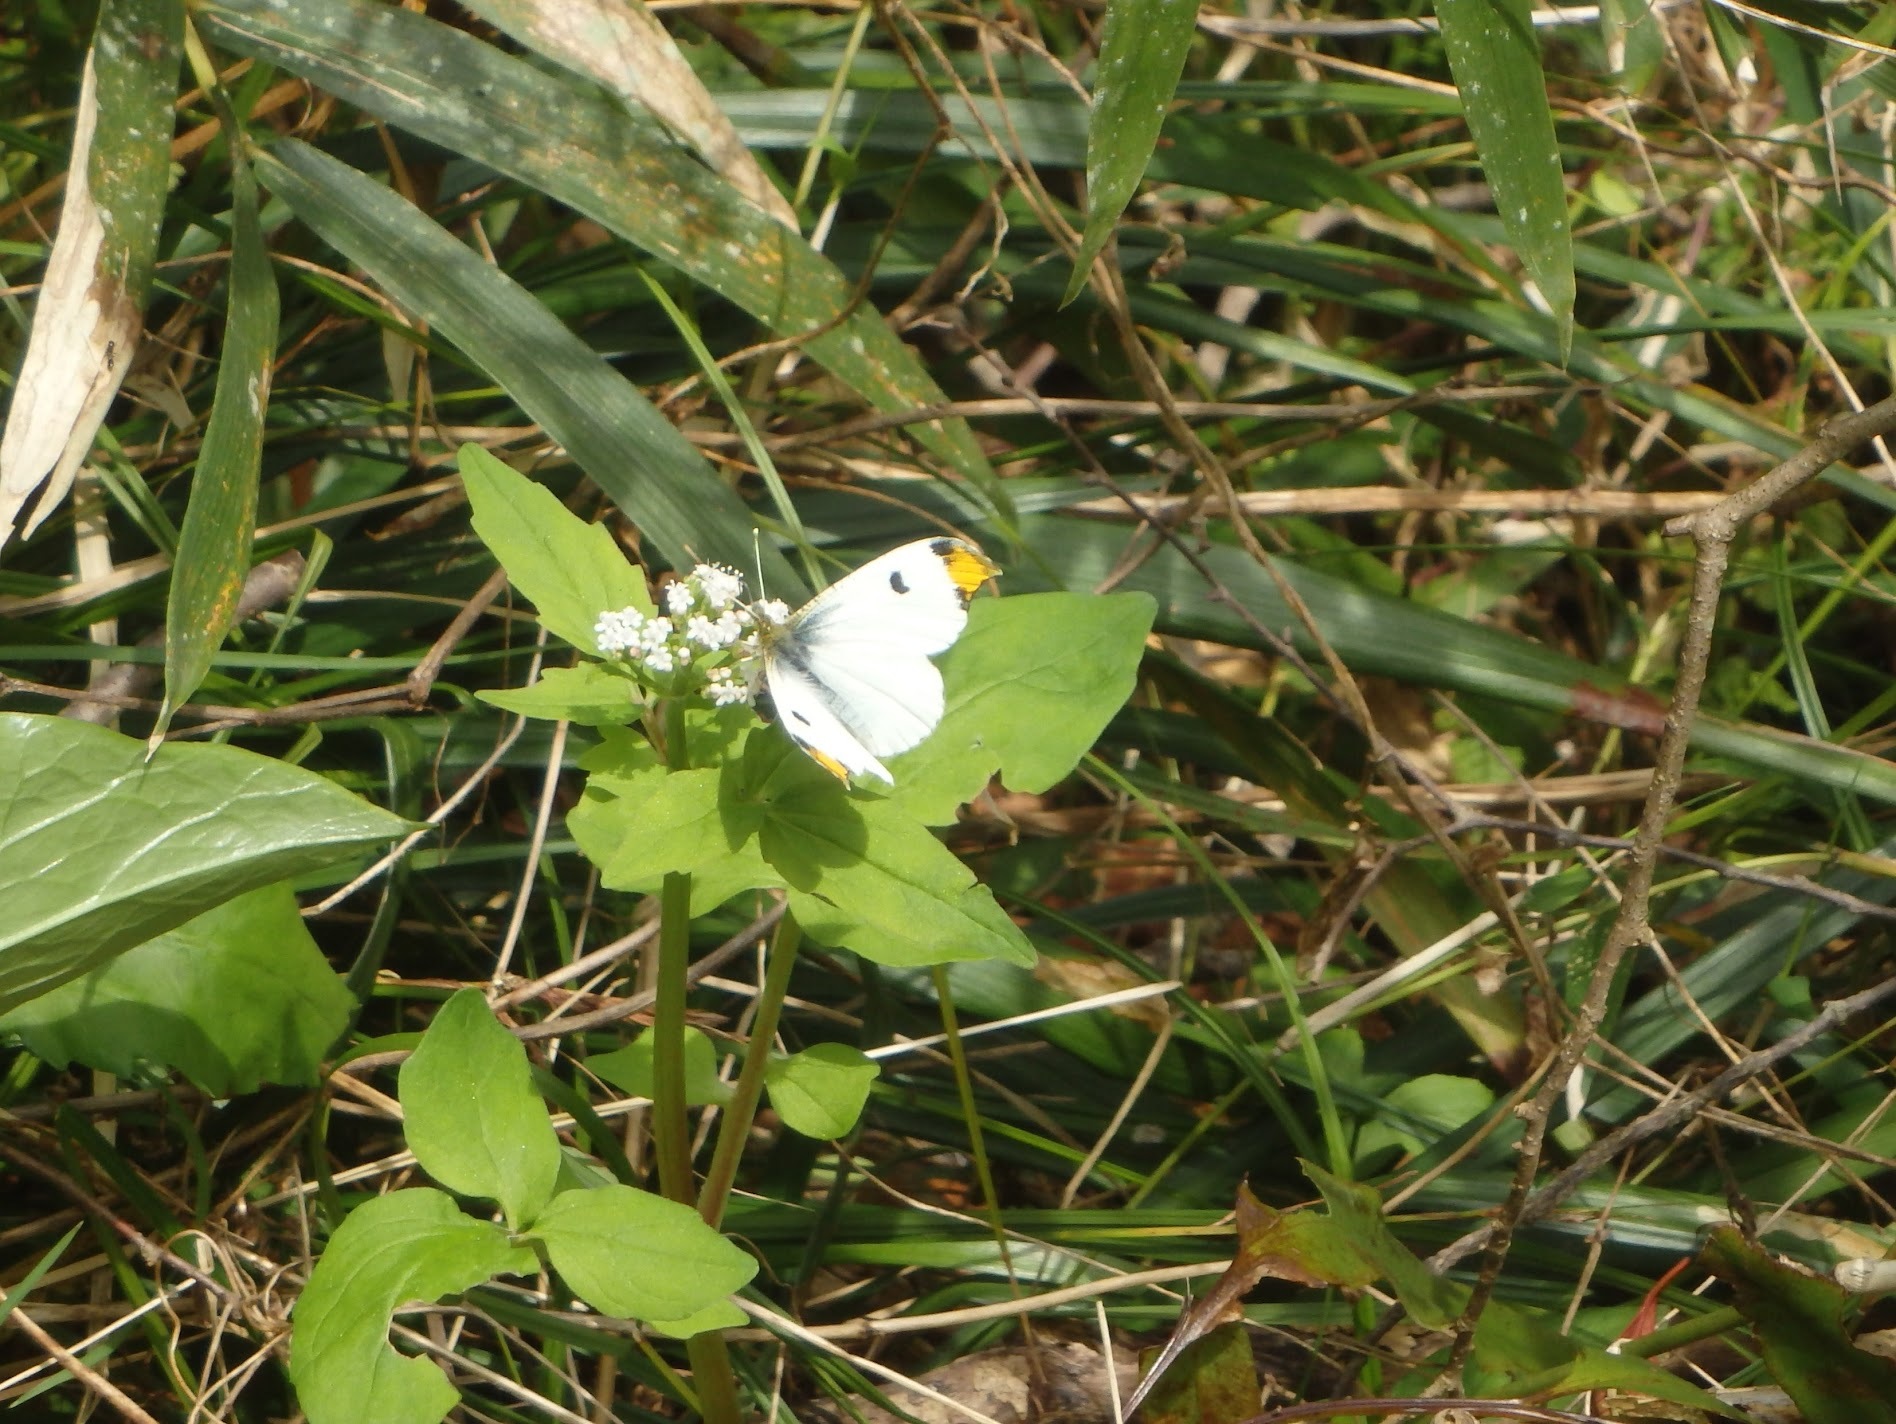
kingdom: Animalia
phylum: Arthropoda
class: Insecta
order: Lepidoptera
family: Pieridae
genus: Anthocharis
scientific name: Anthocharis scolymus
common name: Yellow tip
